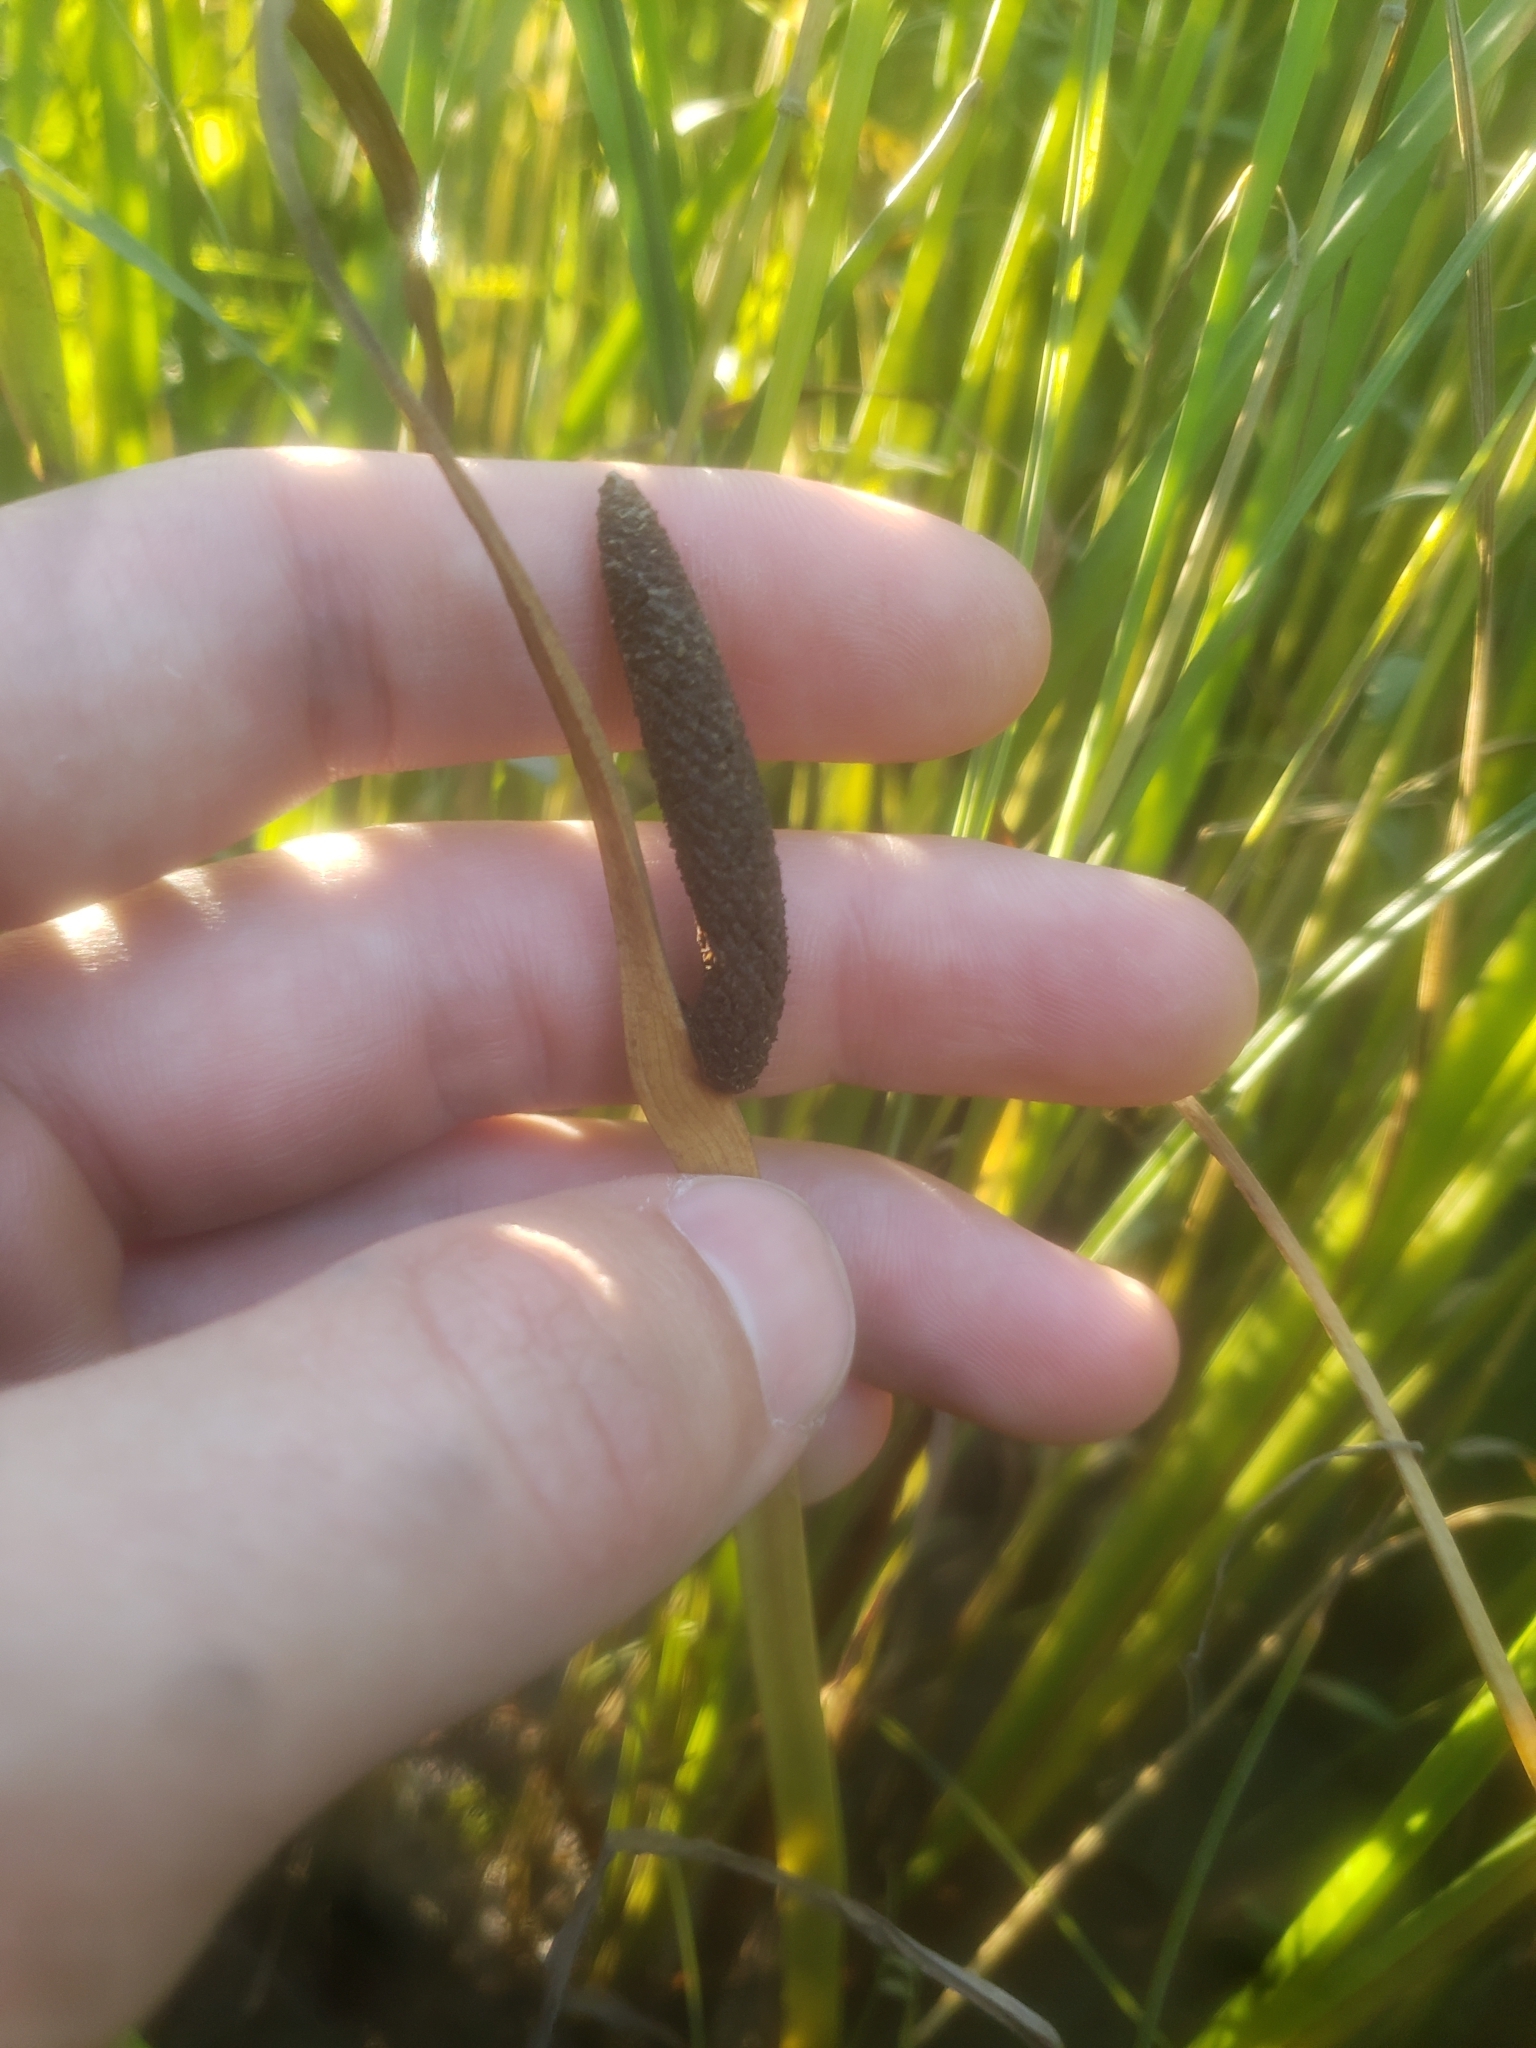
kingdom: Plantae
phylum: Tracheophyta
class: Liliopsida
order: Acorales
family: Acoraceae
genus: Acorus
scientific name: Acorus calamus
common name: Sweet-flag
